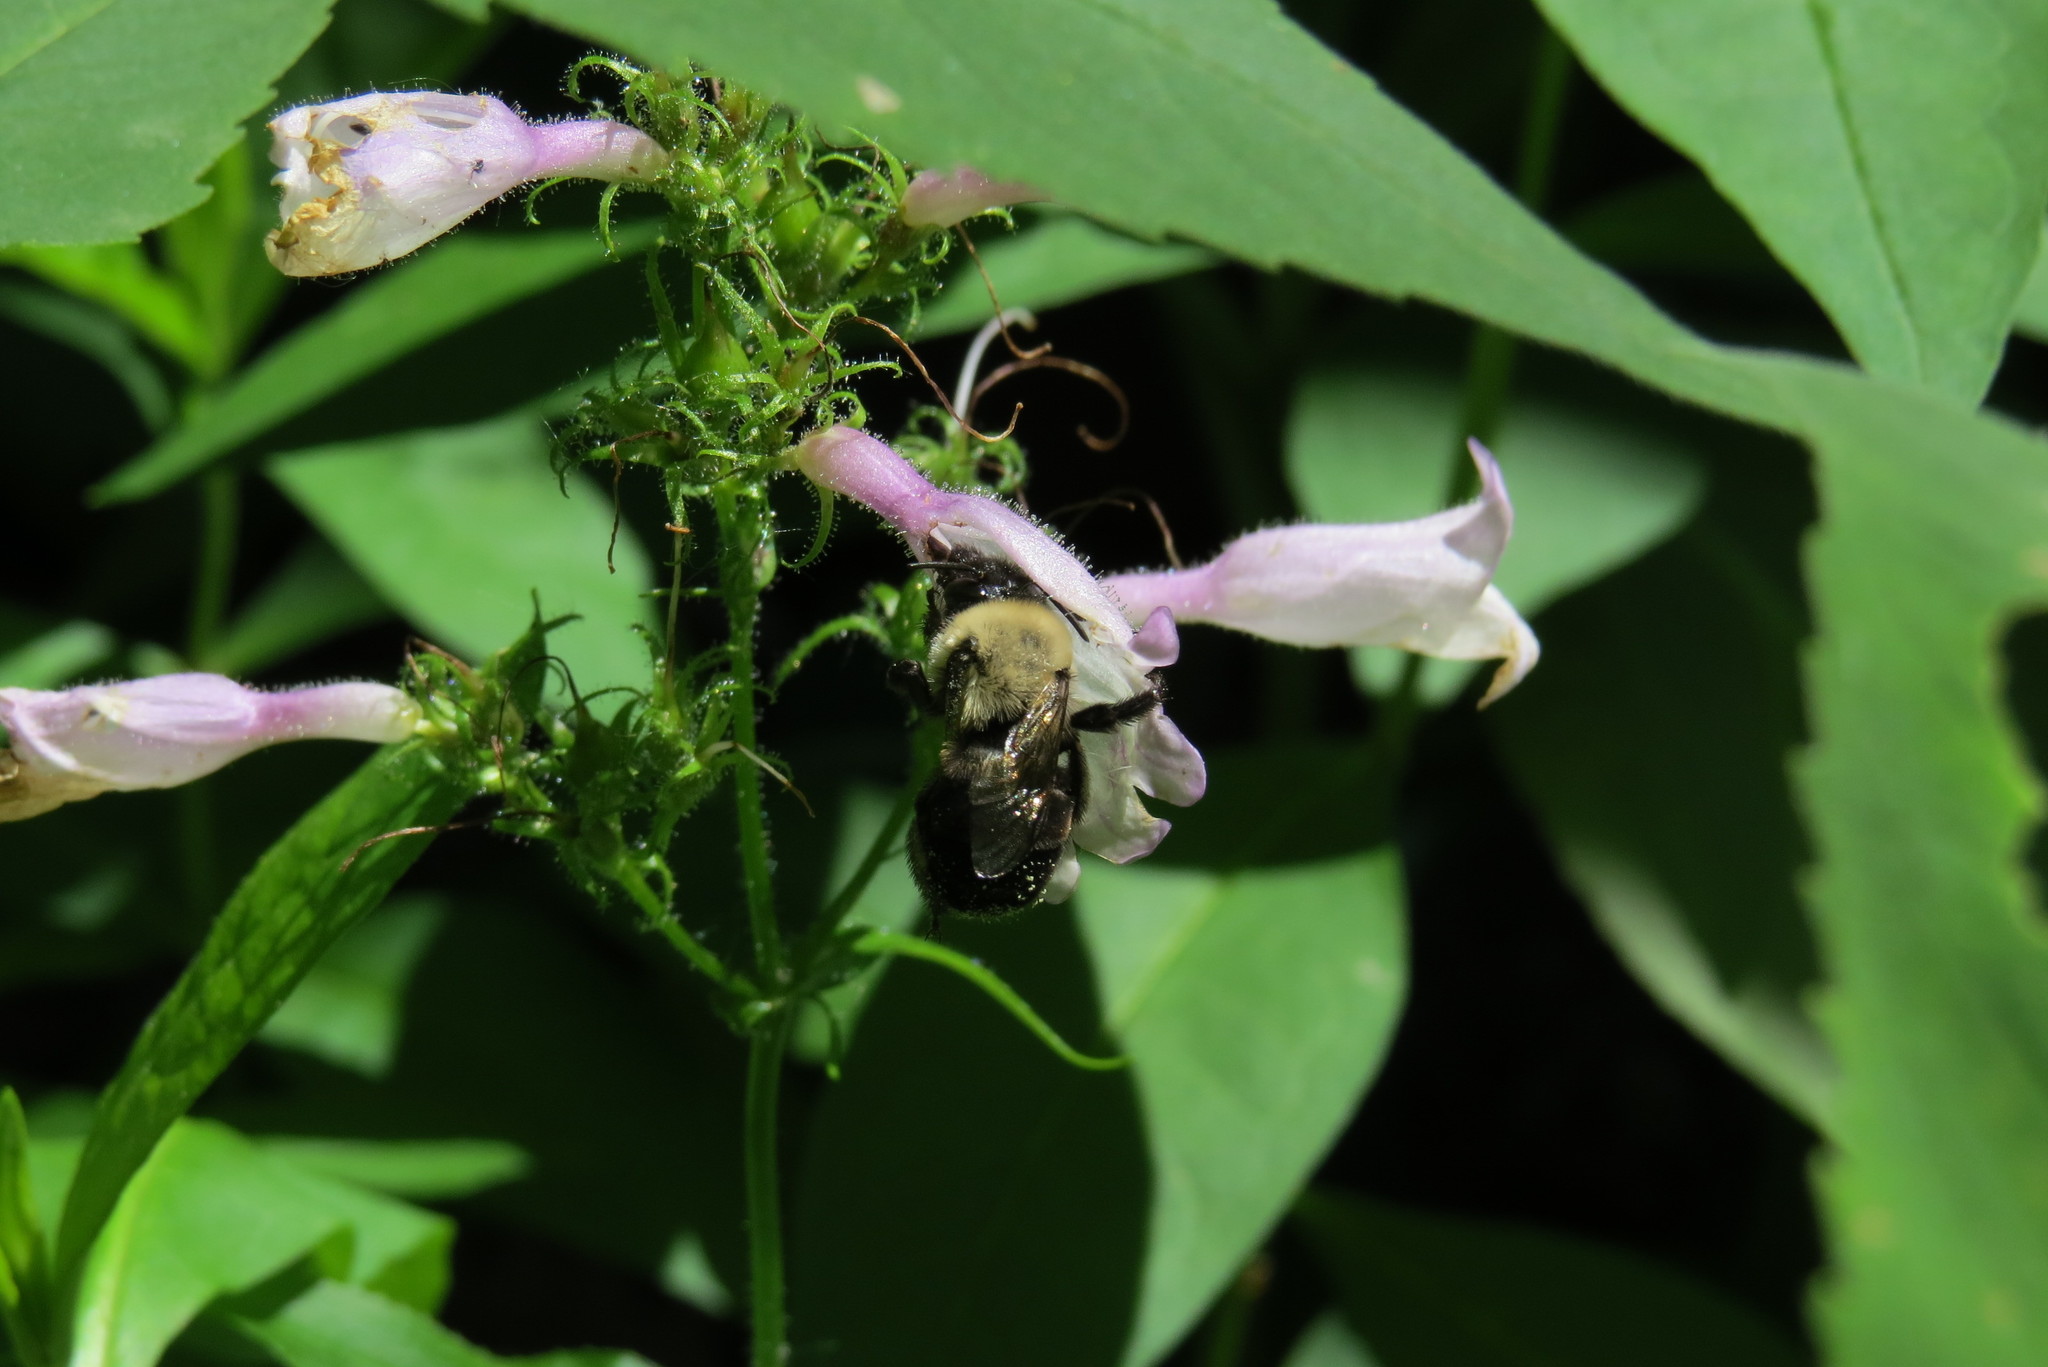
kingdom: Animalia
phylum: Arthropoda
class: Insecta
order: Hymenoptera
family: Apidae
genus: Anthophora
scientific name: Anthophora abrupta
